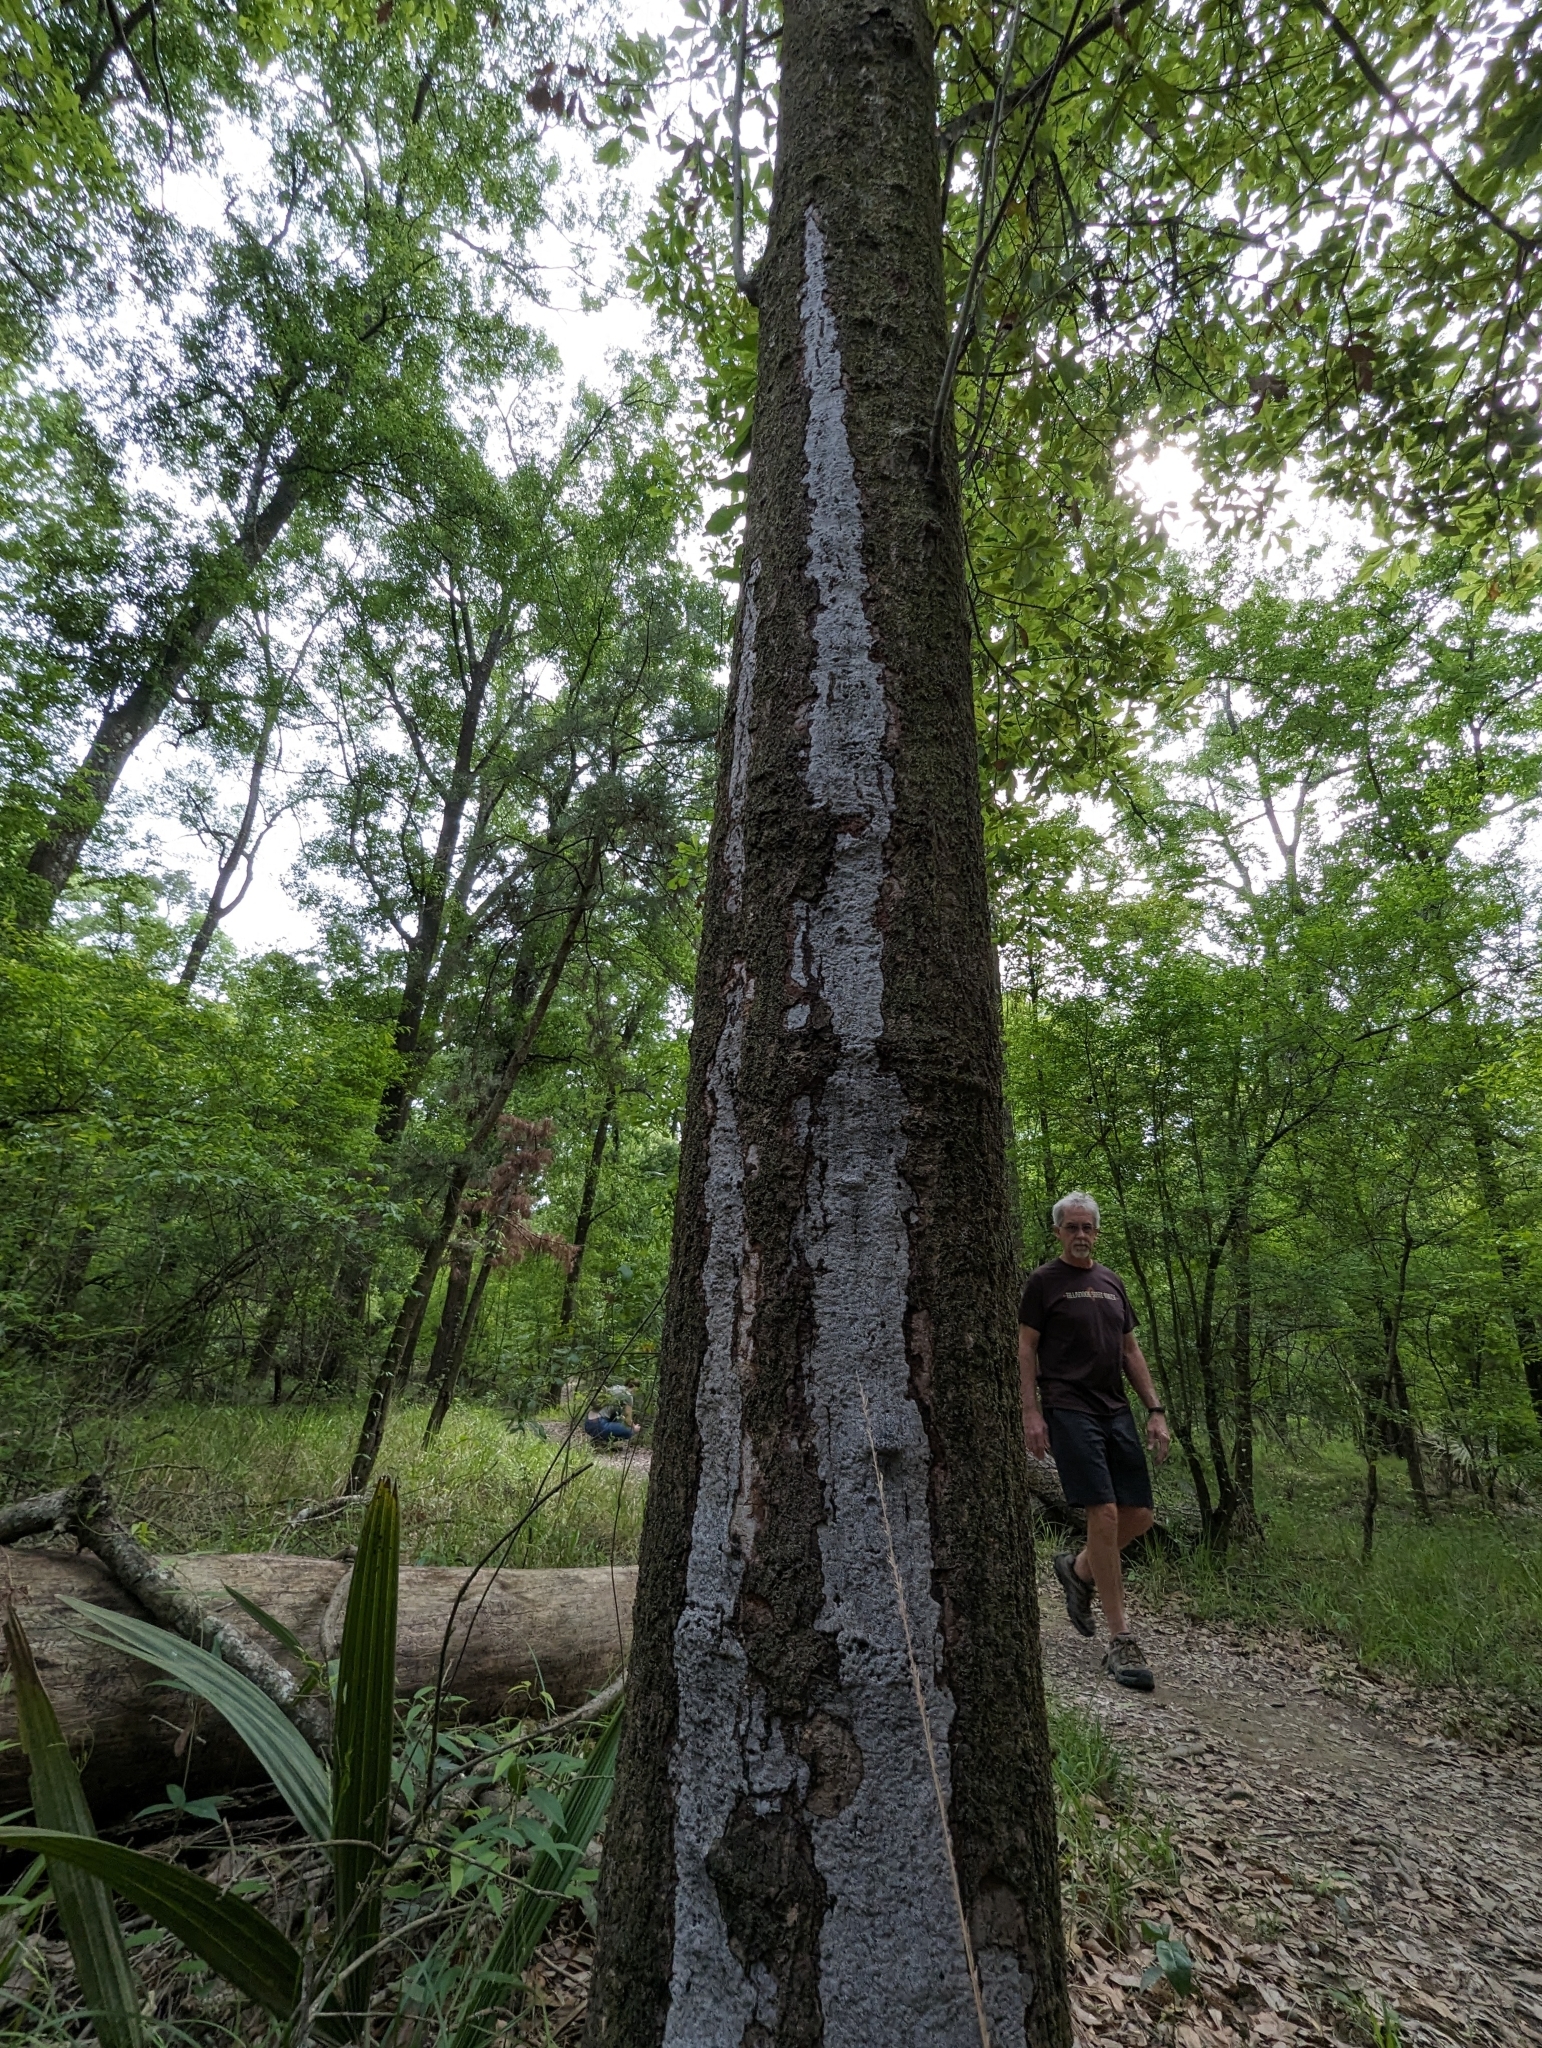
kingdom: Fungi
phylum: Ascomycota
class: Sordariomycetes
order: Xylariales
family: Graphostromataceae
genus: Biscogniauxia
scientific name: Biscogniauxia atropunctata
